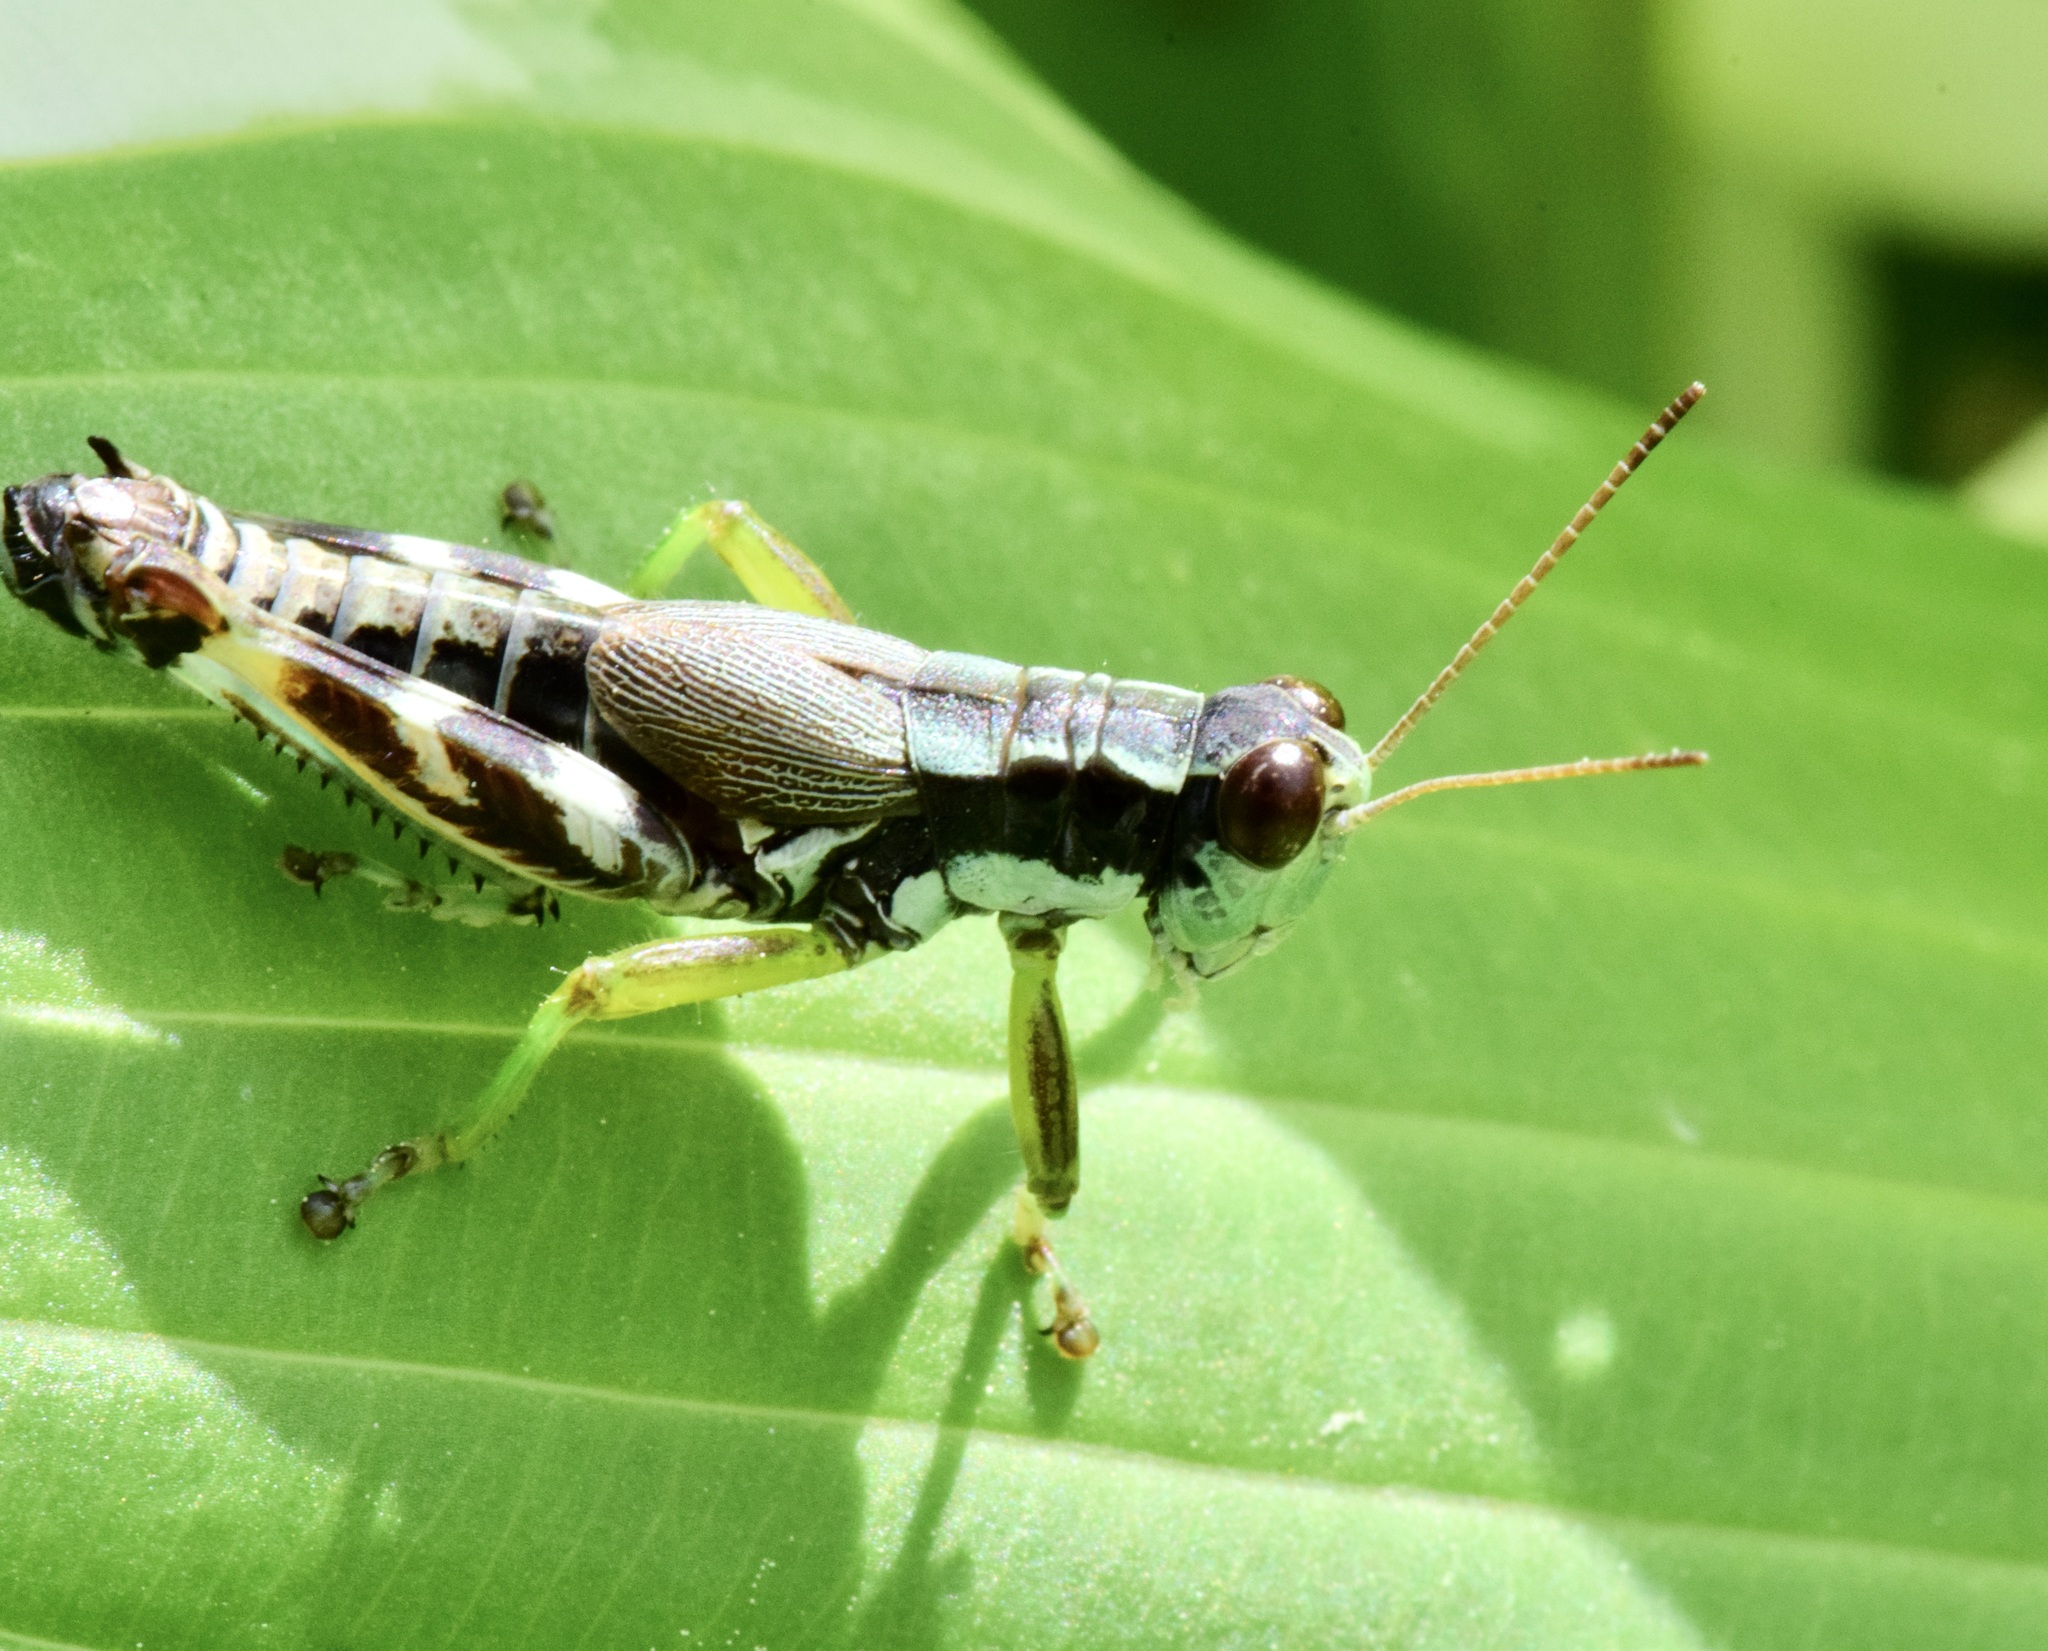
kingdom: Animalia
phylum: Arthropoda
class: Insecta
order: Orthoptera
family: Acrididae
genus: Melanoplus
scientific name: Melanoplus viridipes
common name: Green-legged locust
